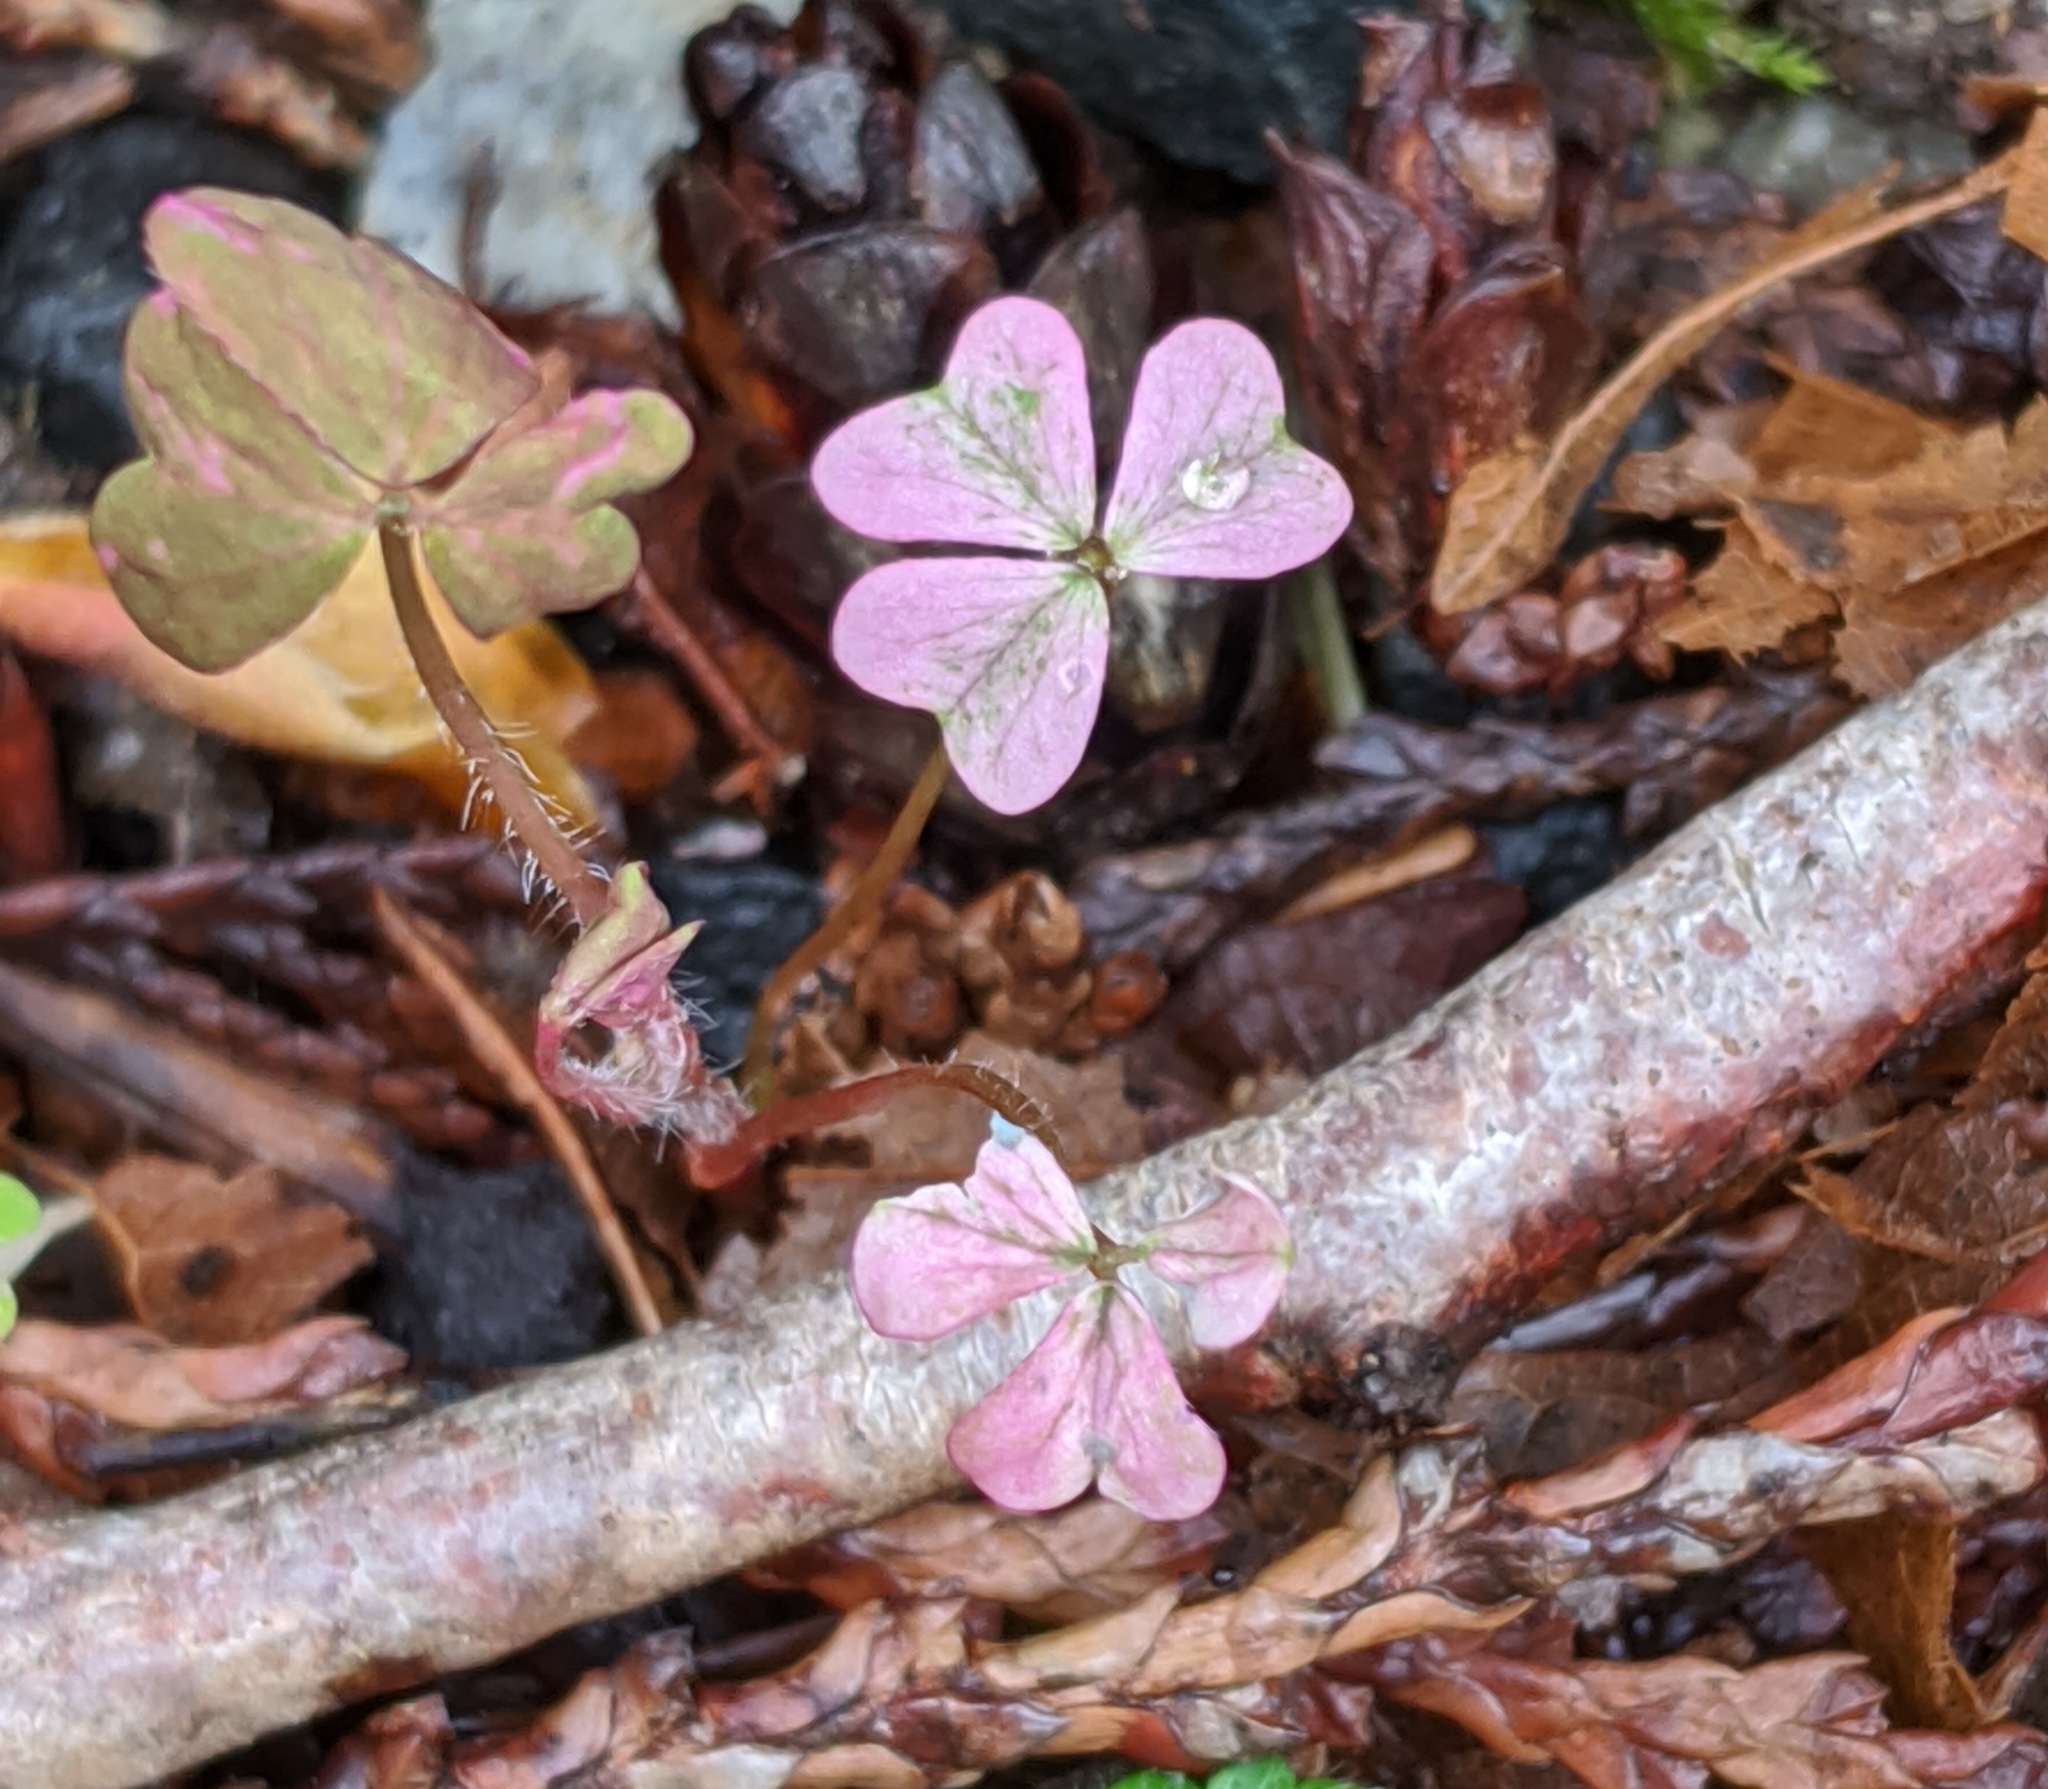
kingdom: Plantae
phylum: Tracheophyta
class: Magnoliopsida
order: Oxalidales
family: Oxalidaceae
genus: Oxalis
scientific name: Oxalis corniculata
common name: Procumbent yellow-sorrel
